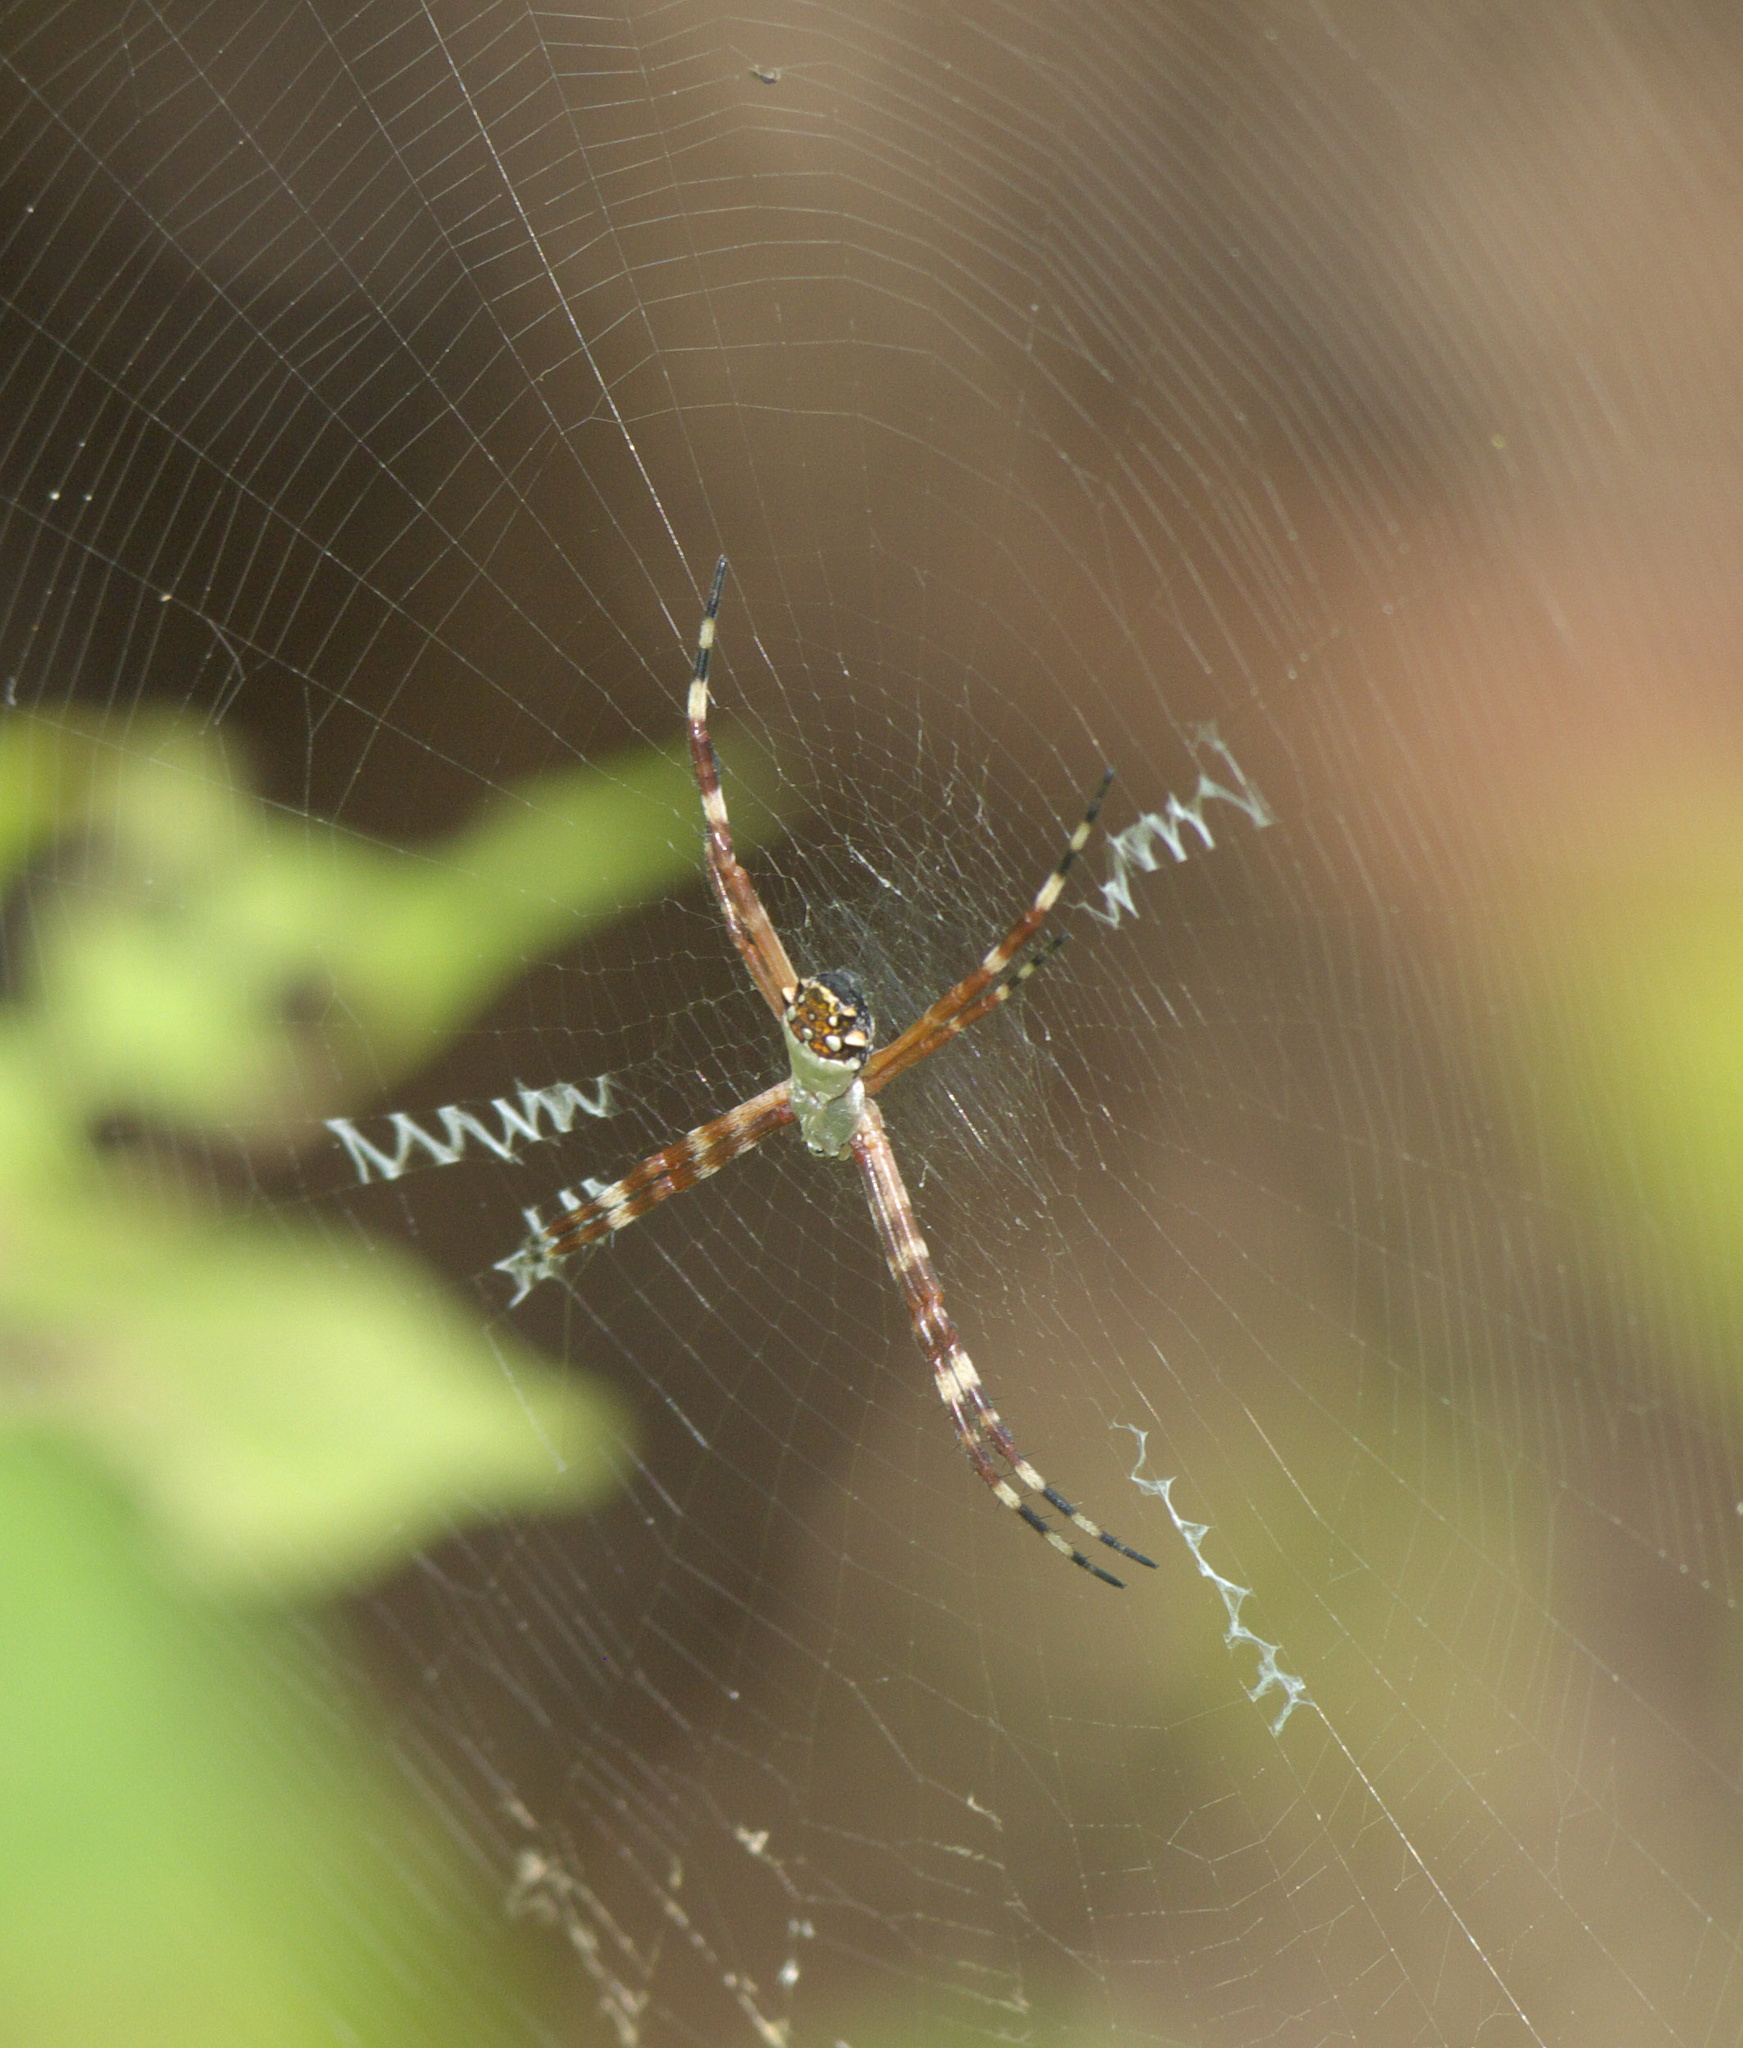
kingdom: Animalia
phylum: Arthropoda
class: Arachnida
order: Araneae
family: Araneidae
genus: Argiope
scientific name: Argiope argentata
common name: Orb weavers
